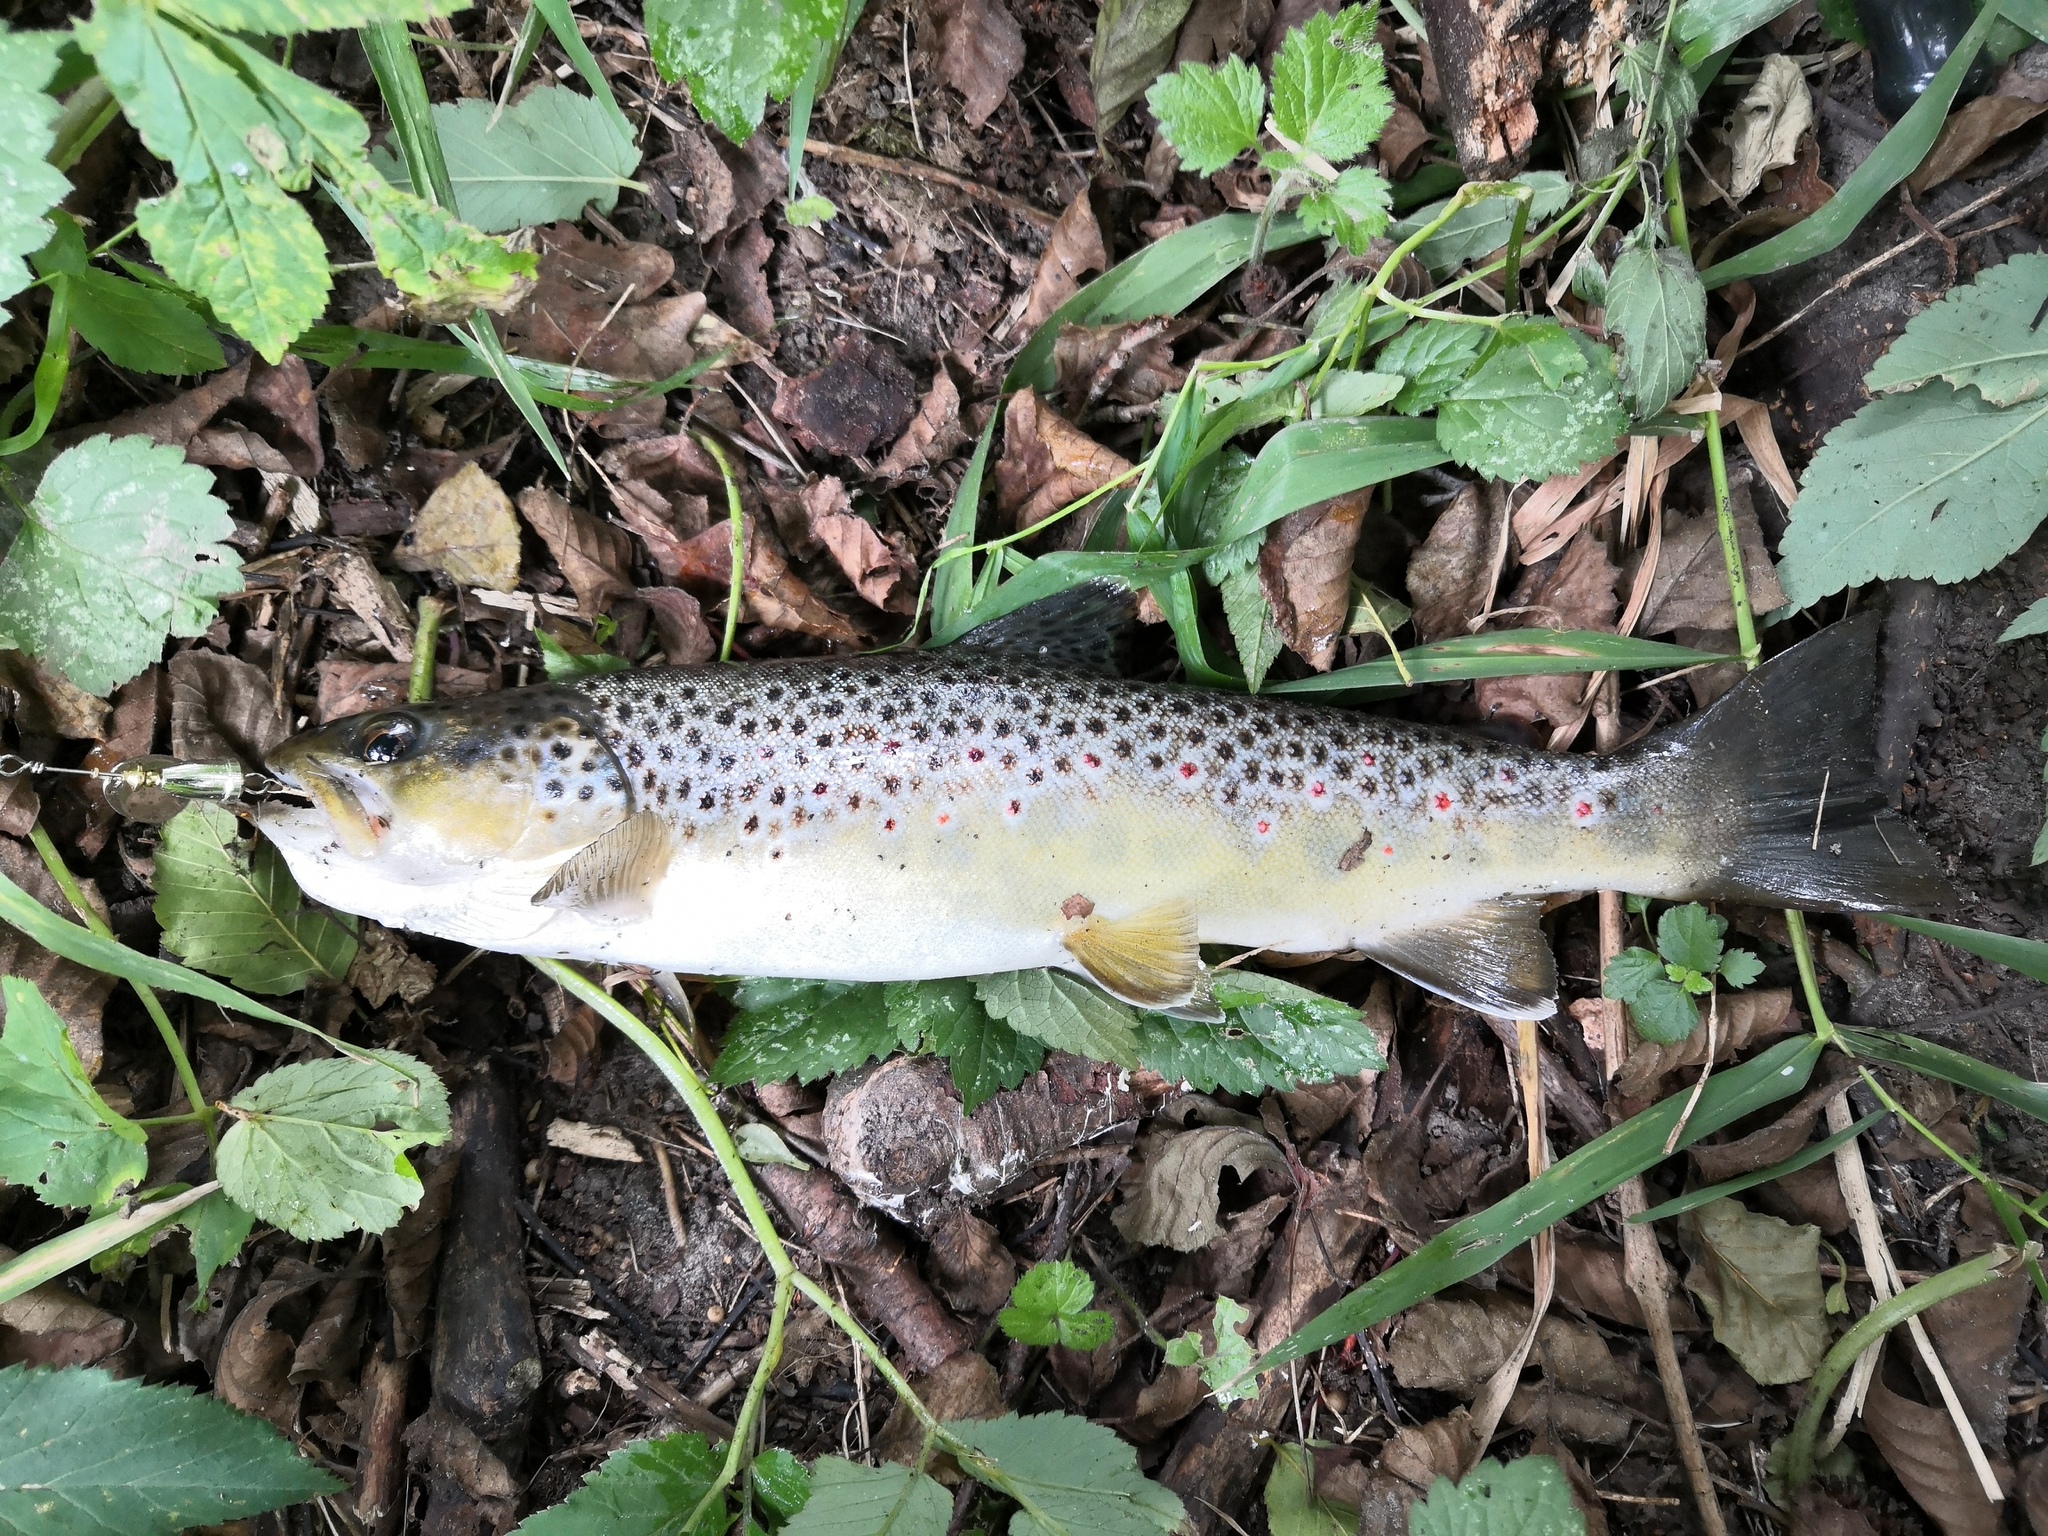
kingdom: Animalia
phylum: Chordata
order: Salmoniformes
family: Salmonidae
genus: Salmo
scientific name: Salmo trutta
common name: Brown trout
